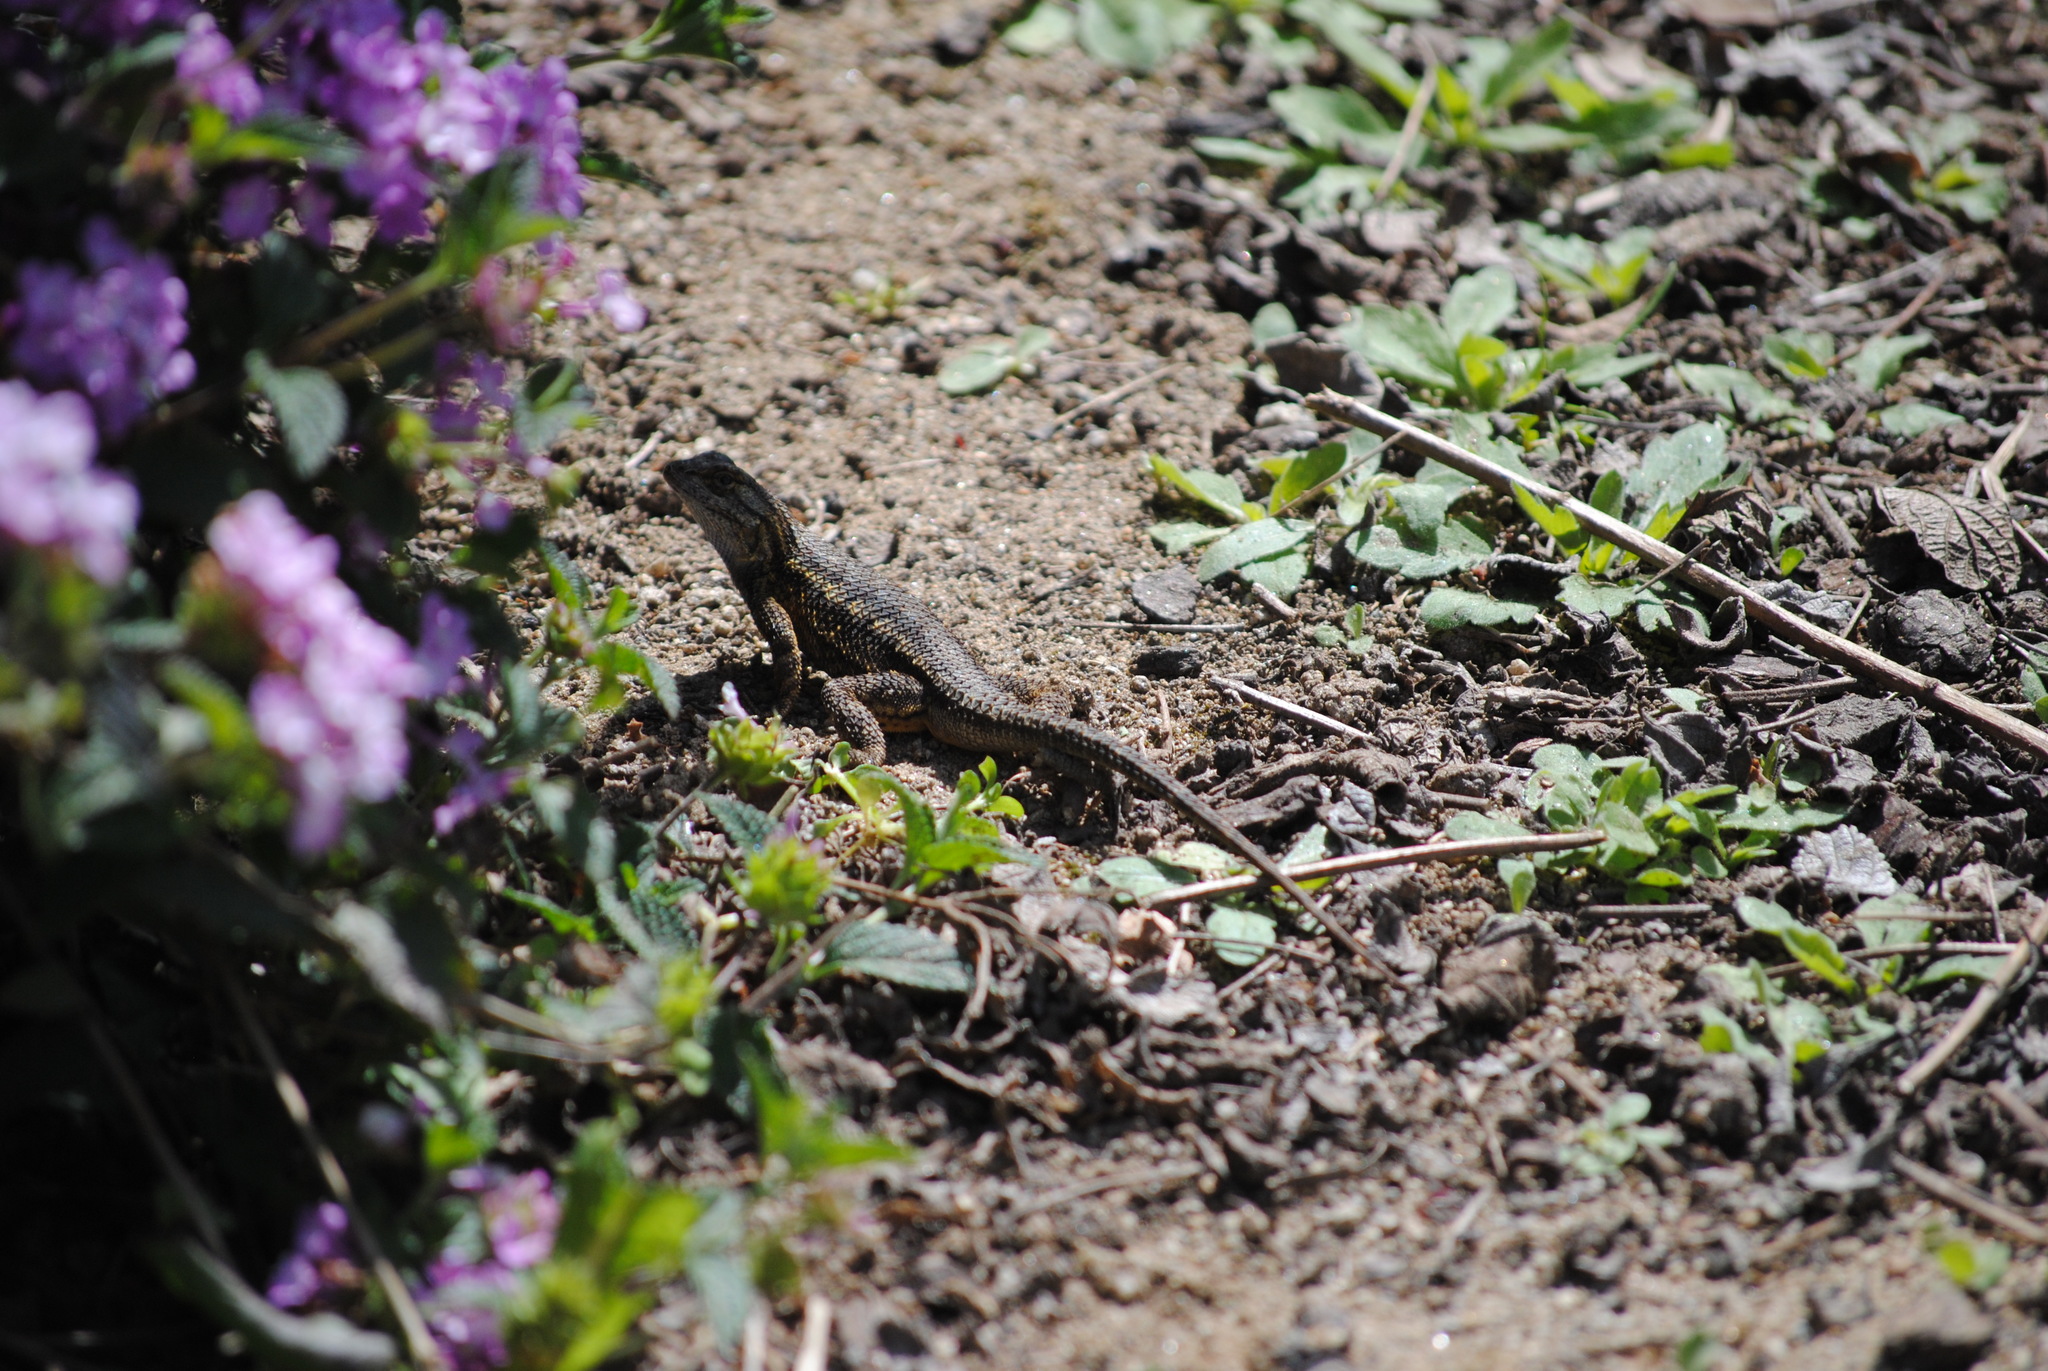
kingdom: Animalia
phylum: Chordata
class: Squamata
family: Phrynosomatidae
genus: Sceloporus
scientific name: Sceloporus occidentalis
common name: Western fence lizard
